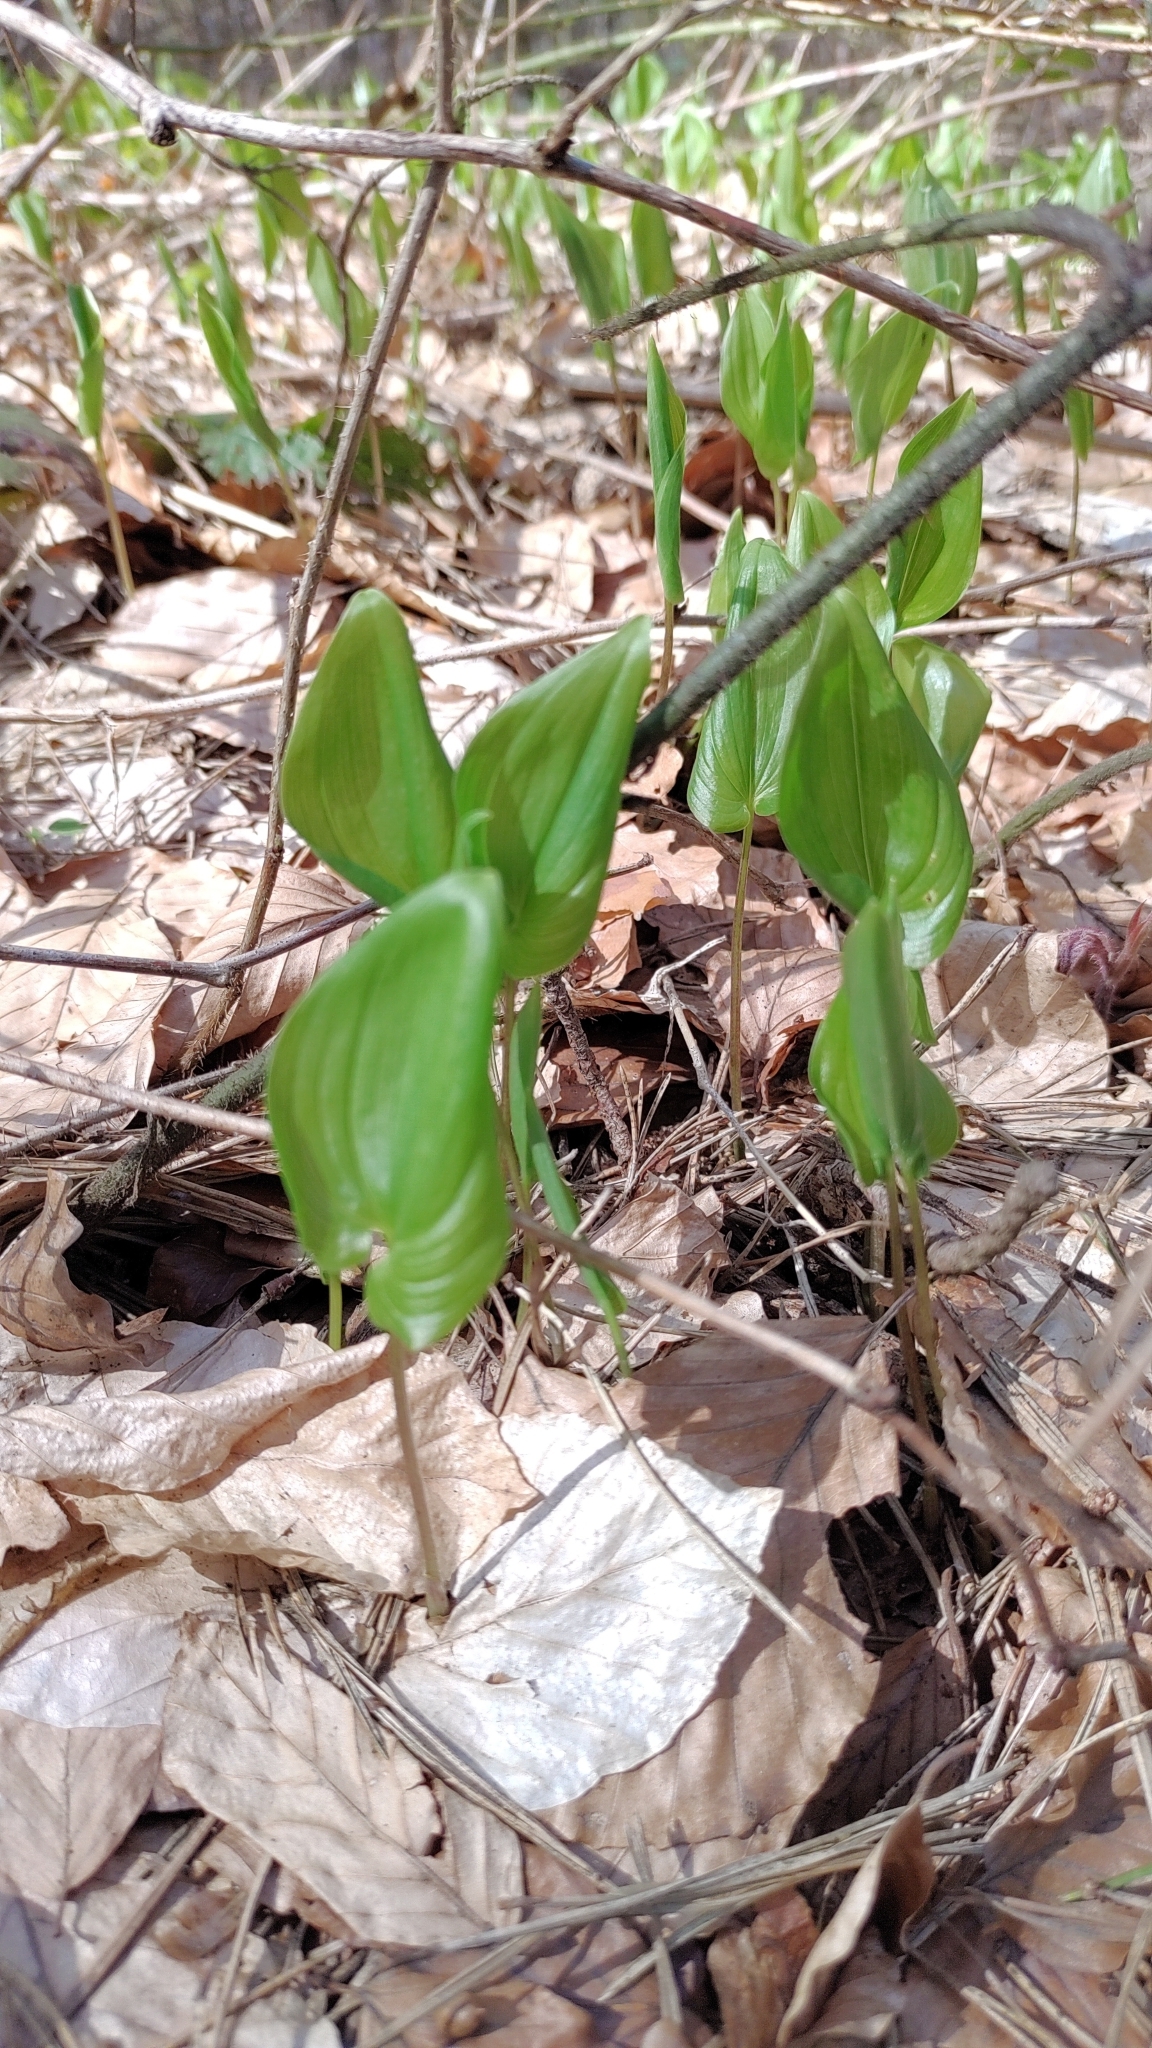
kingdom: Plantae
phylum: Tracheophyta
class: Liliopsida
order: Asparagales
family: Asparagaceae
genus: Maianthemum
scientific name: Maianthemum bifolium
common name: May lily
